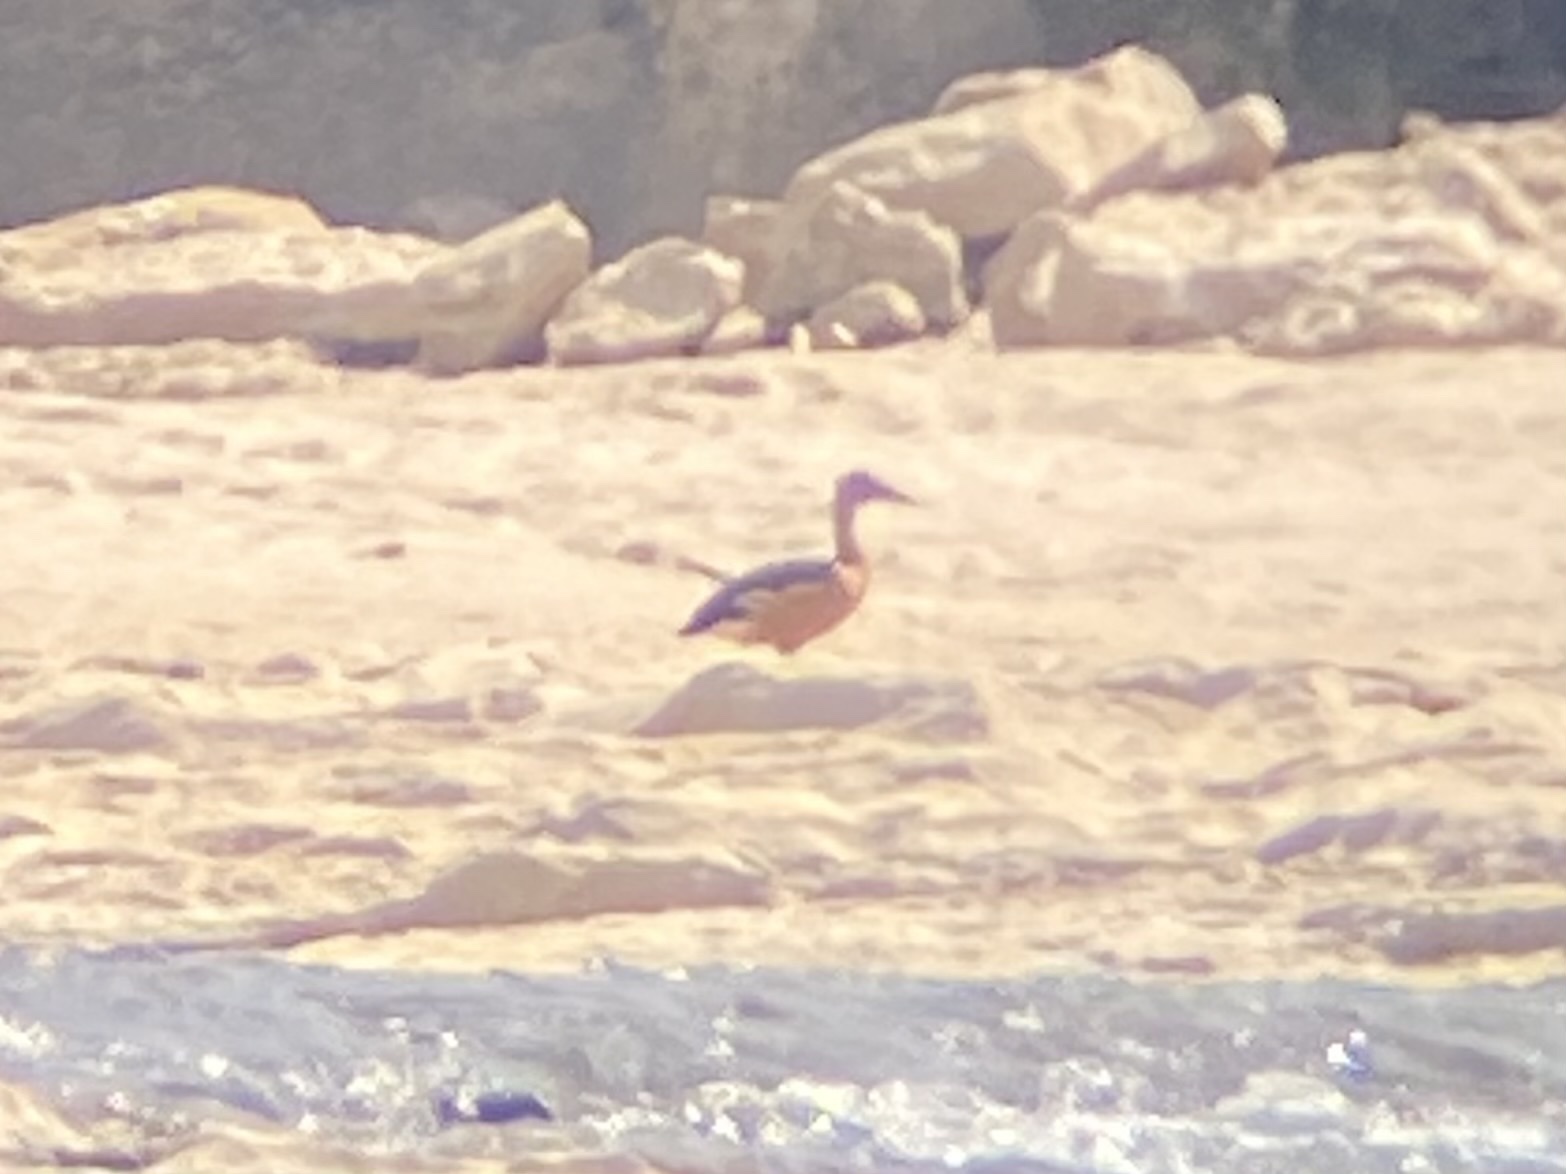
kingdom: Animalia
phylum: Chordata
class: Aves
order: Anseriformes
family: Anatidae
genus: Dendrocygna
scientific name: Dendrocygna bicolor
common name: Fulvous whistling duck
